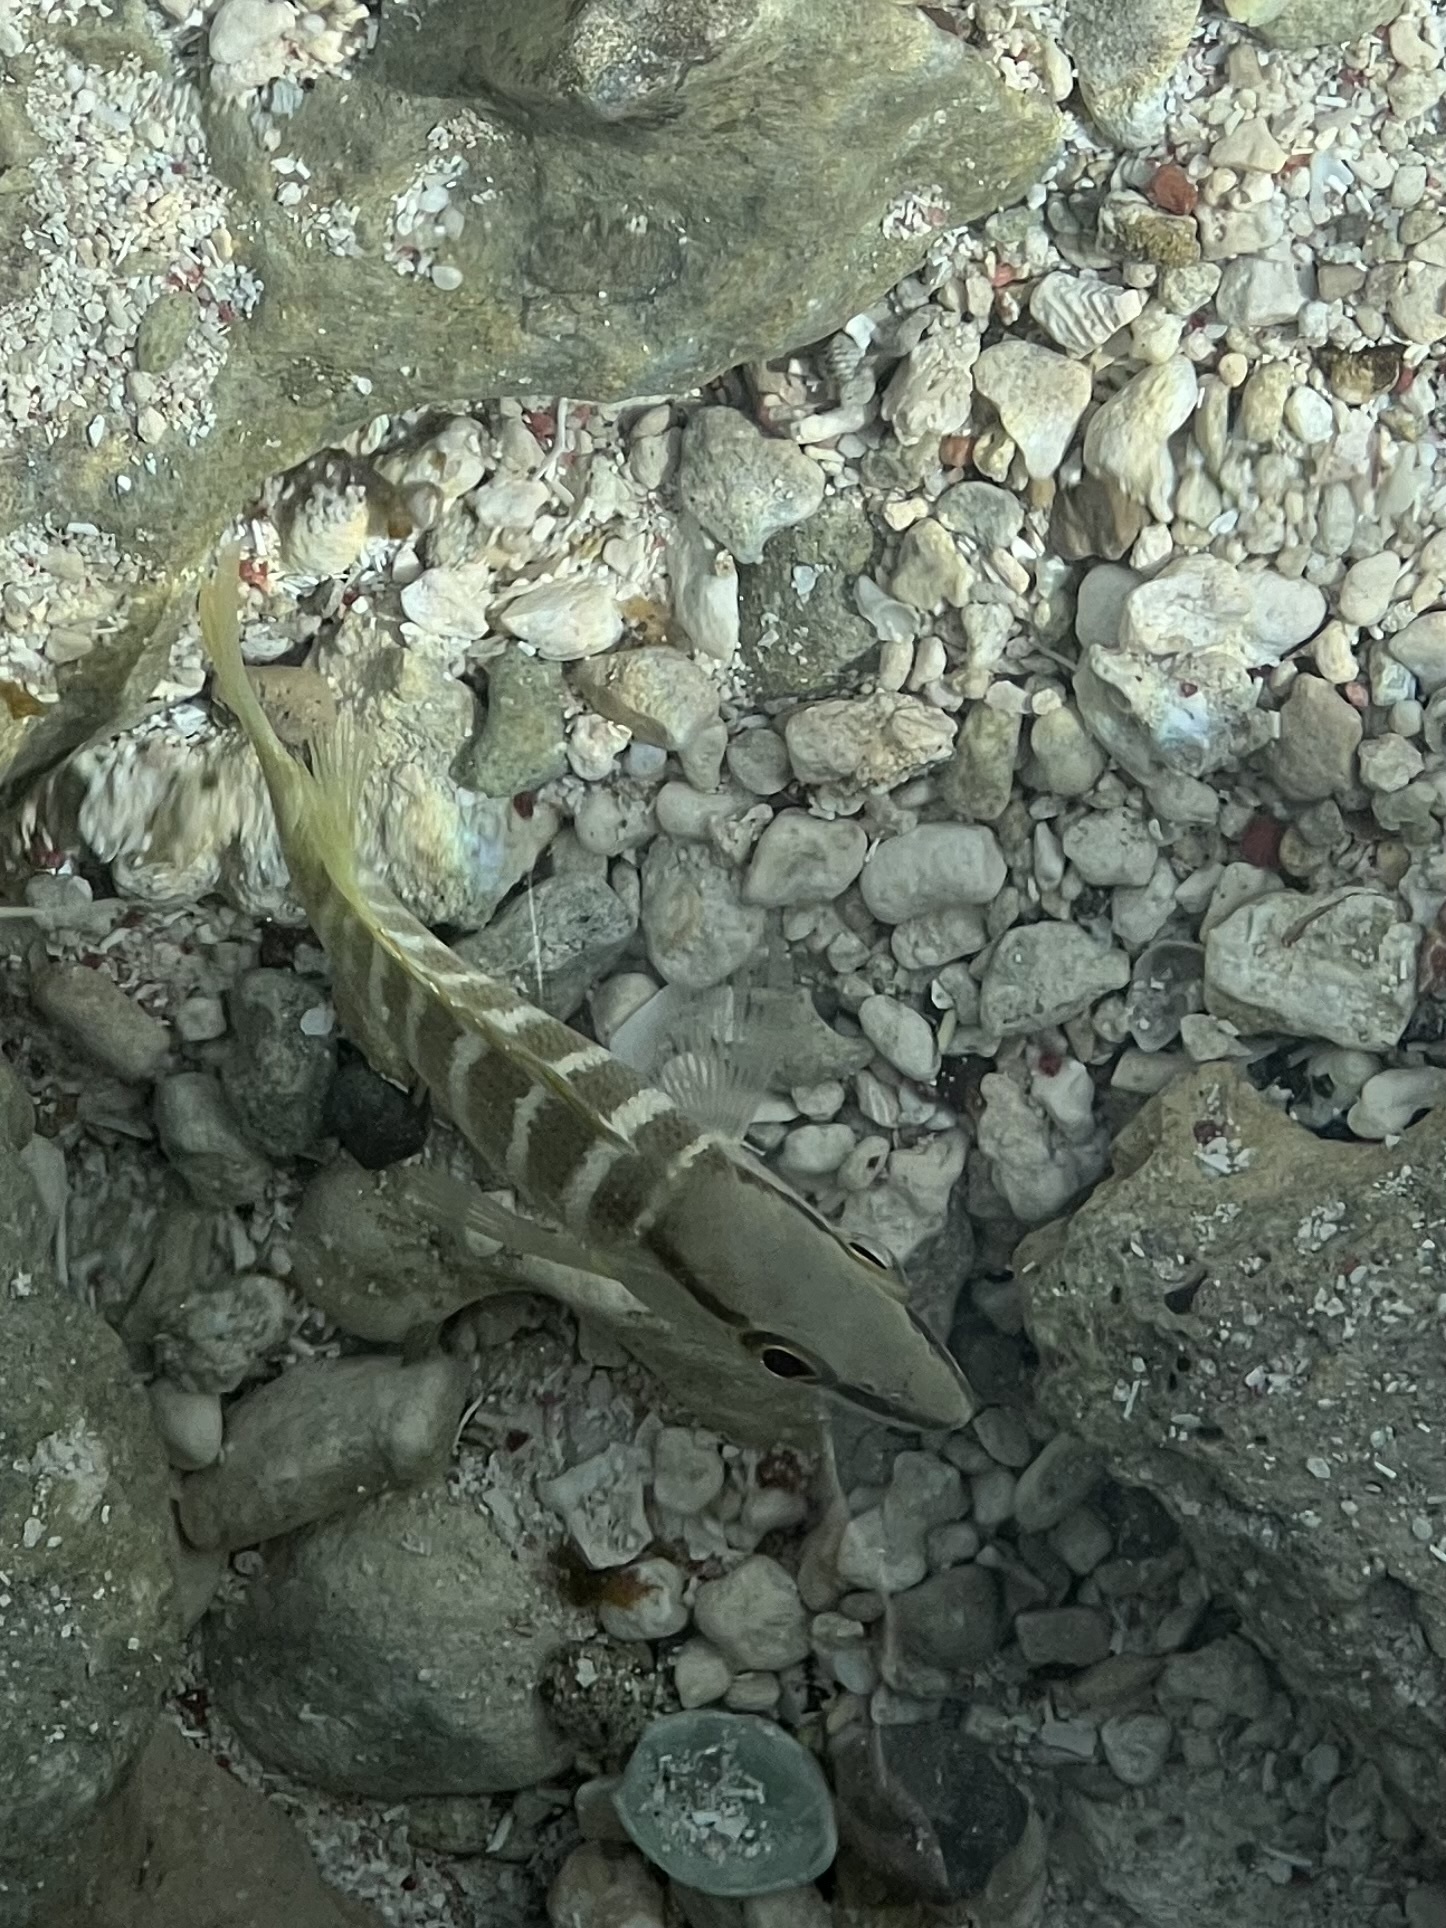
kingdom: Animalia
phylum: Chordata
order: Perciformes
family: Lutjanidae
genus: Lutjanus
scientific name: Lutjanus apodus
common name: Schoolmaster
